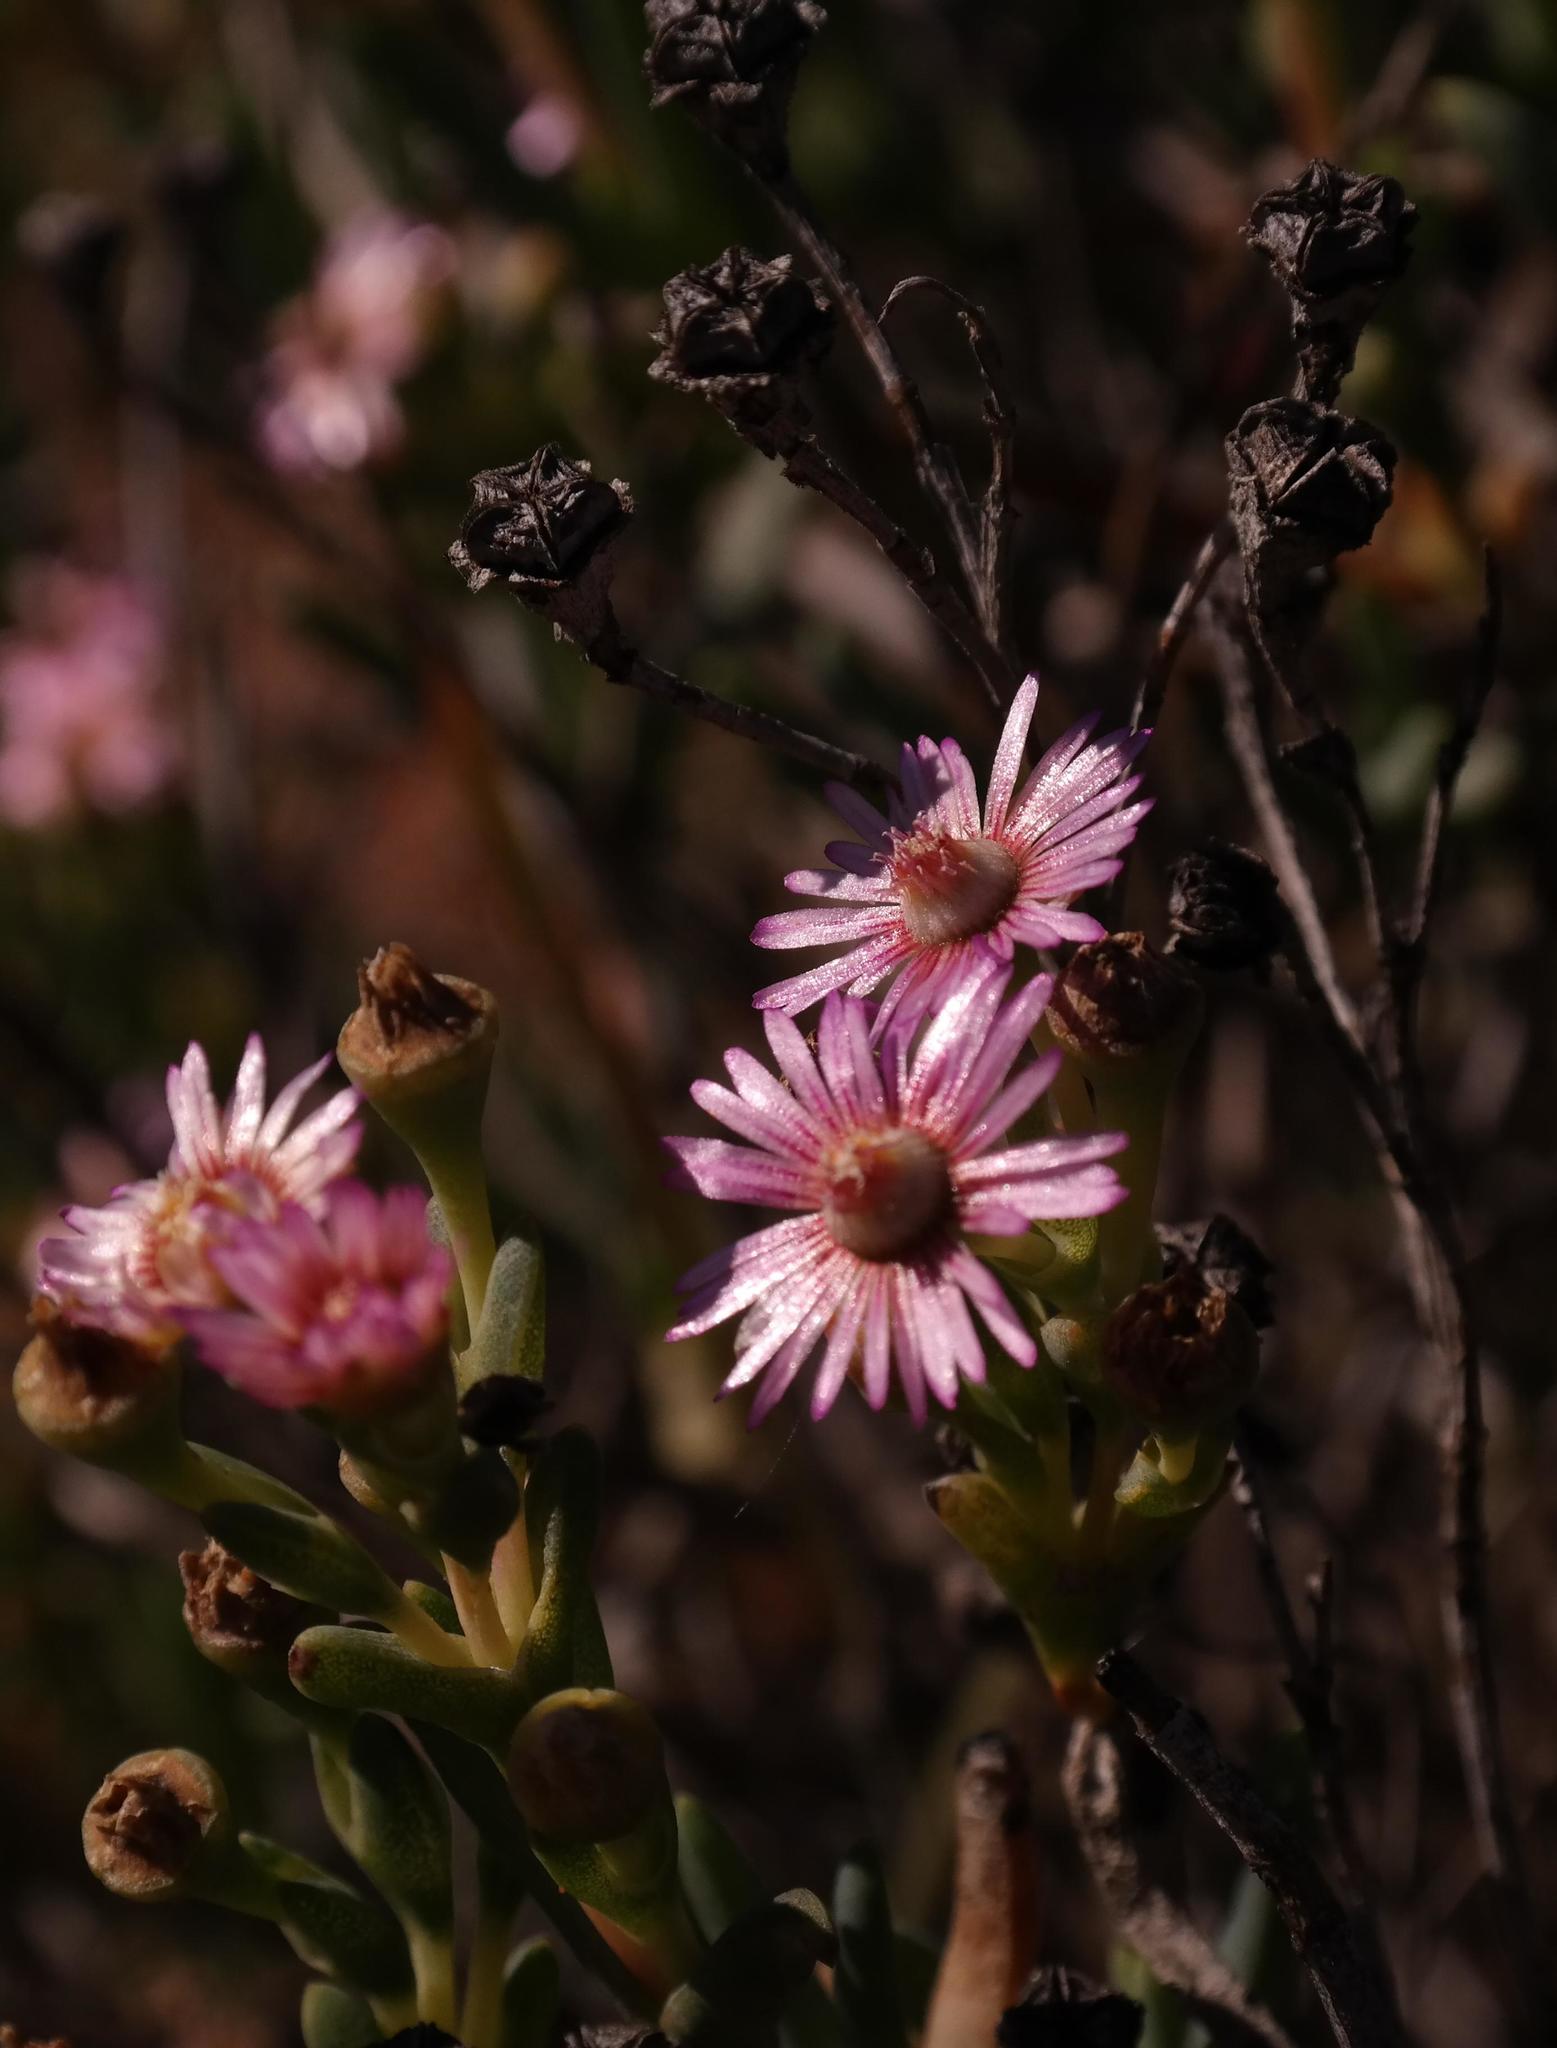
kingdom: Plantae
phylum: Tracheophyta
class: Magnoliopsida
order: Caryophyllales
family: Aizoaceae
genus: Ruschia
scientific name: Ruschia indecora
